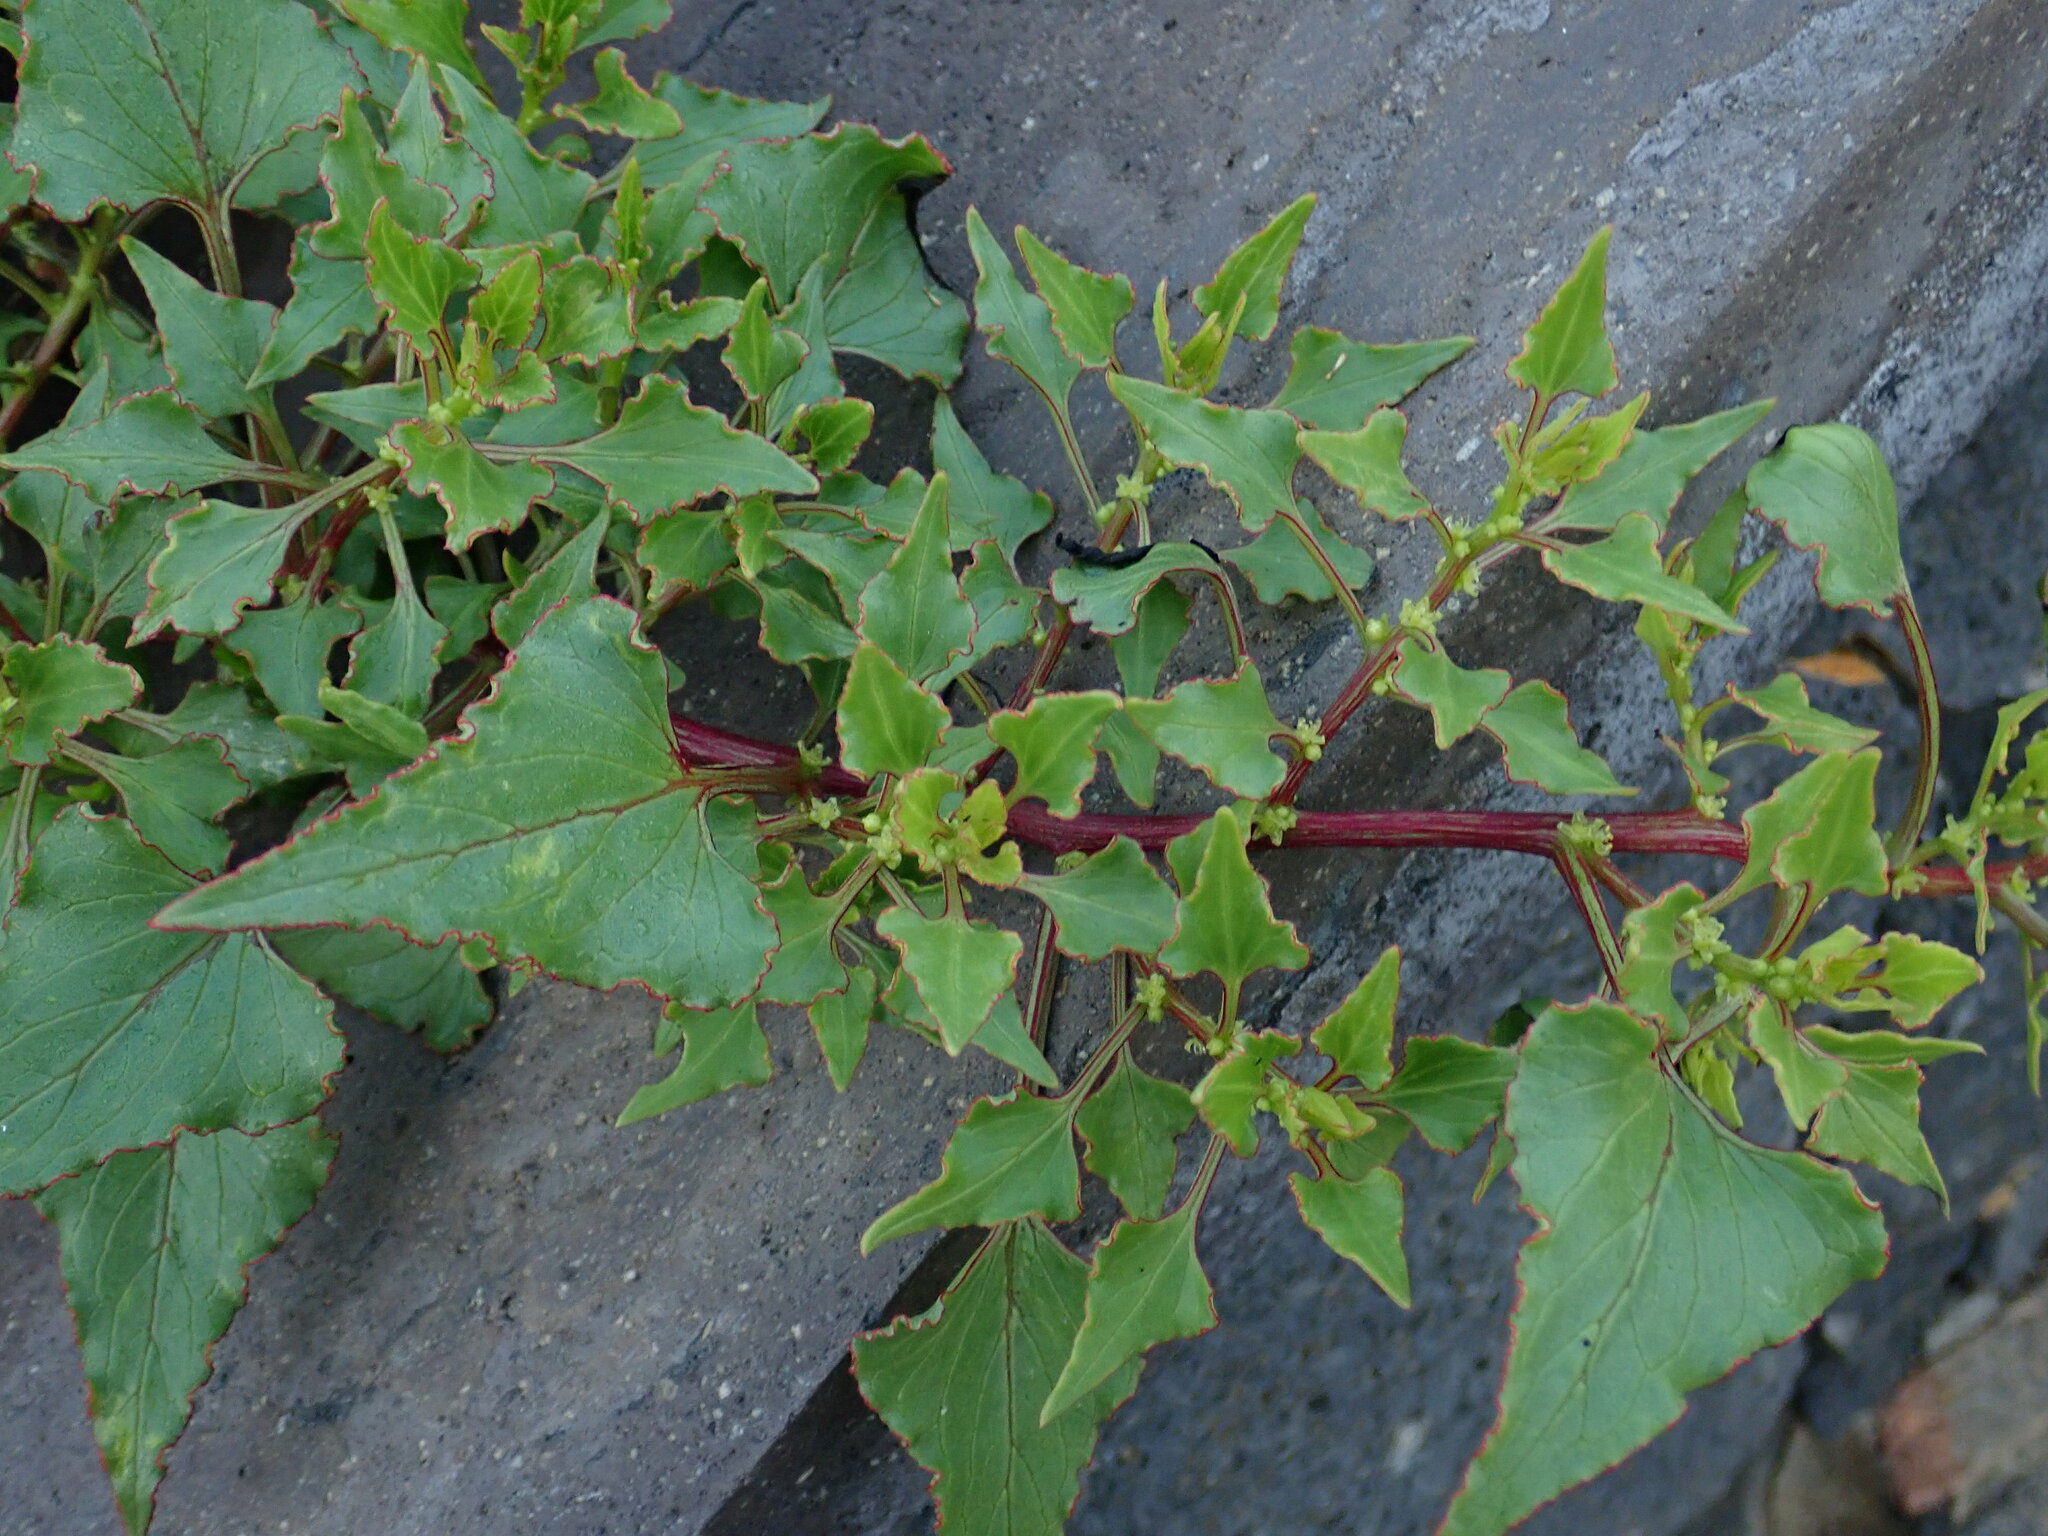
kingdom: Plantae
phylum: Tracheophyta
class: Magnoliopsida
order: Caryophyllales
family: Amaranthaceae
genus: Patellifolia
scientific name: Patellifolia procumbens
